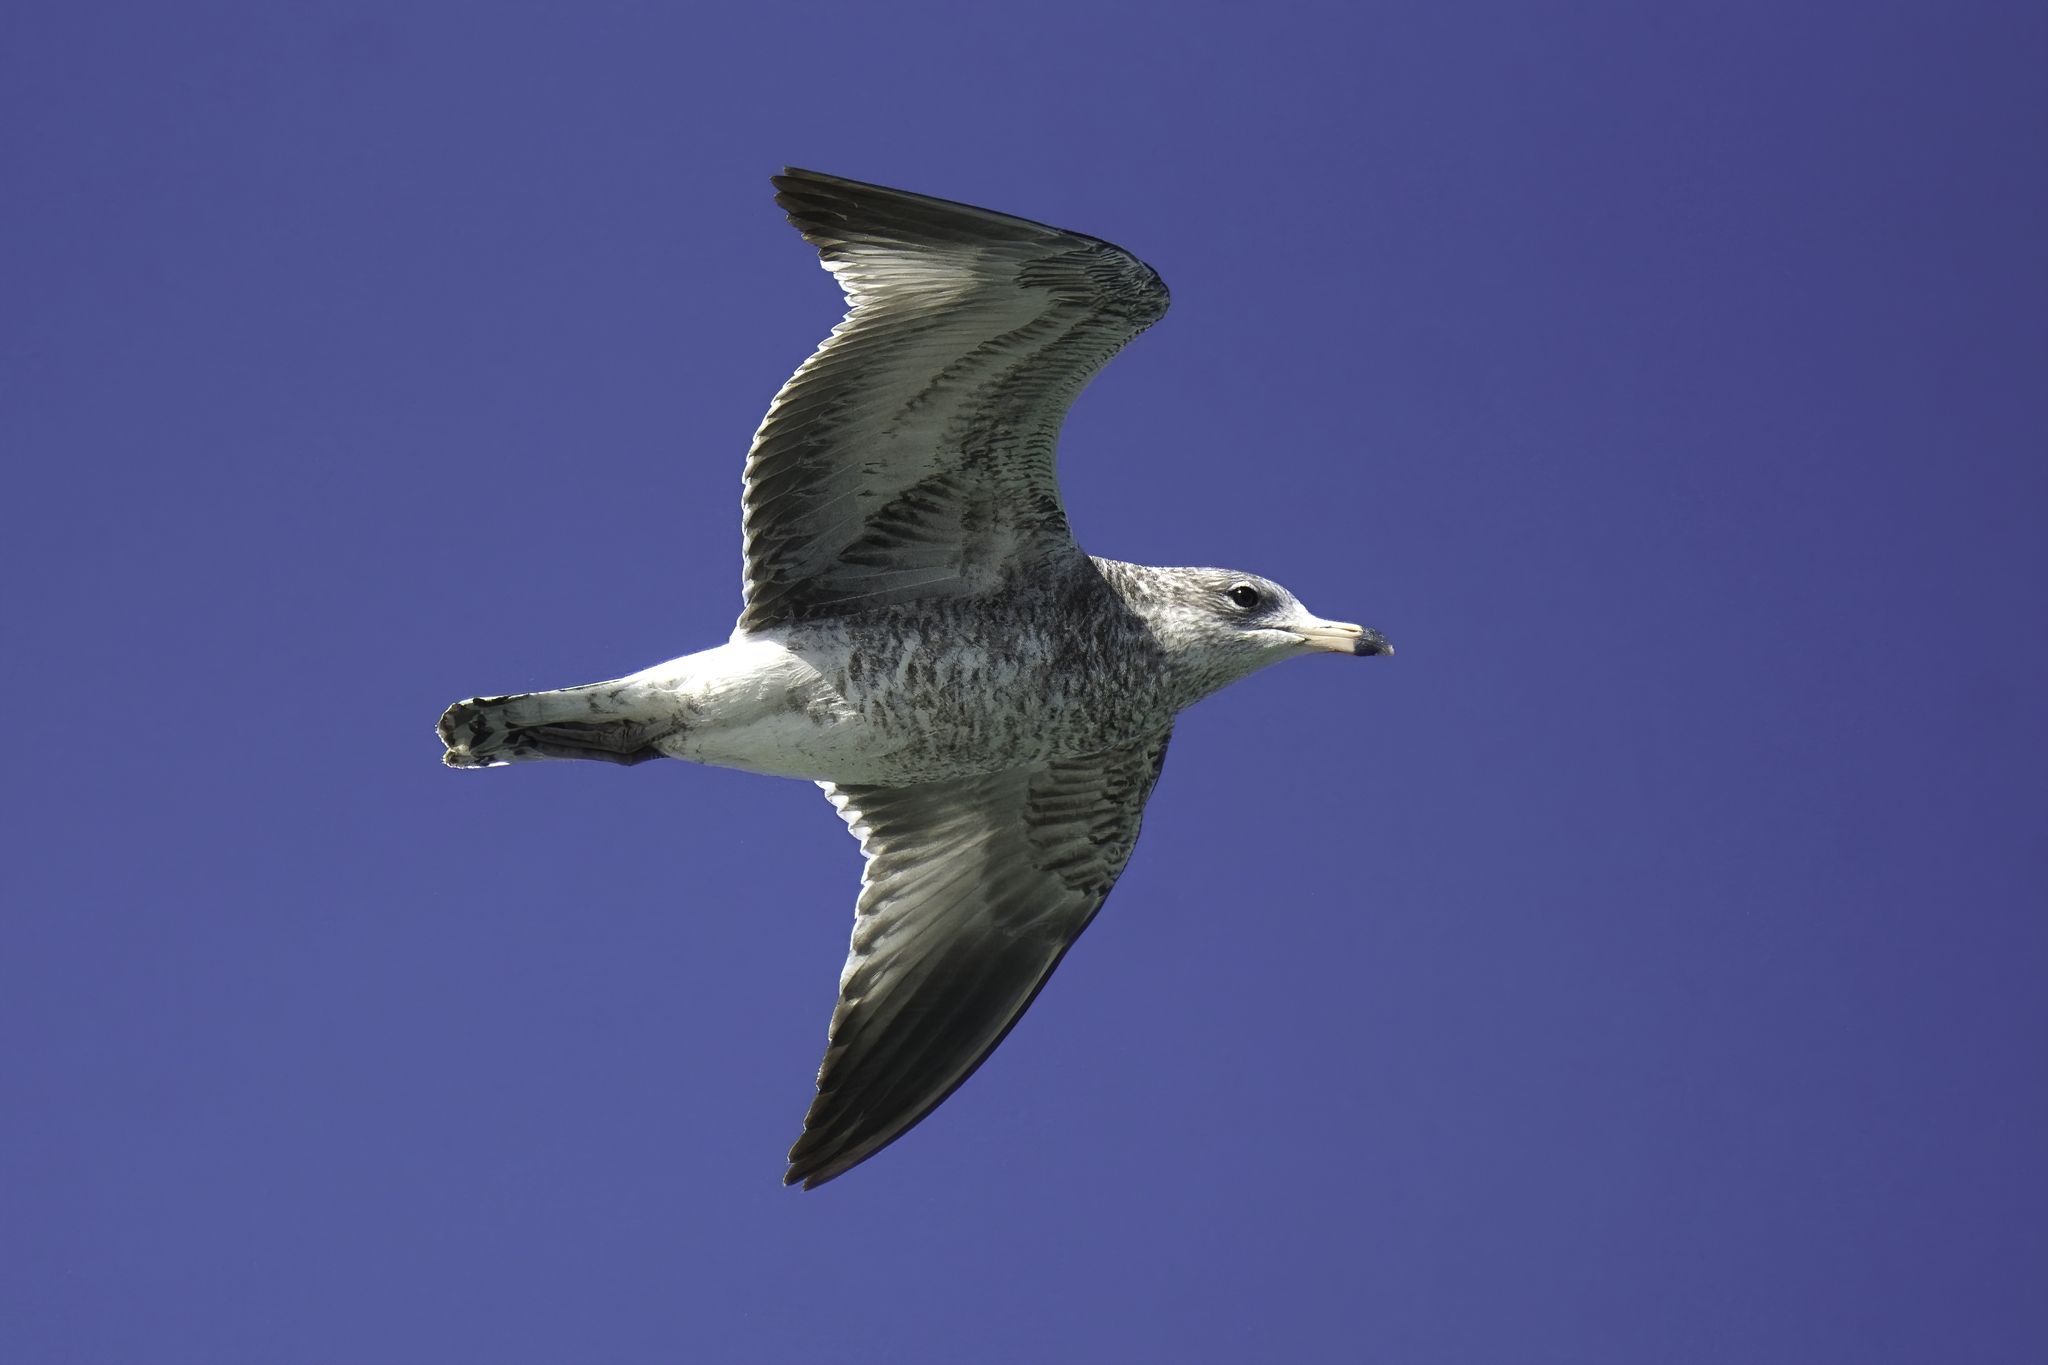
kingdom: Animalia
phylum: Chordata
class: Aves
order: Charadriiformes
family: Laridae
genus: Larus
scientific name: Larus delawarensis
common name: Ring-billed gull
